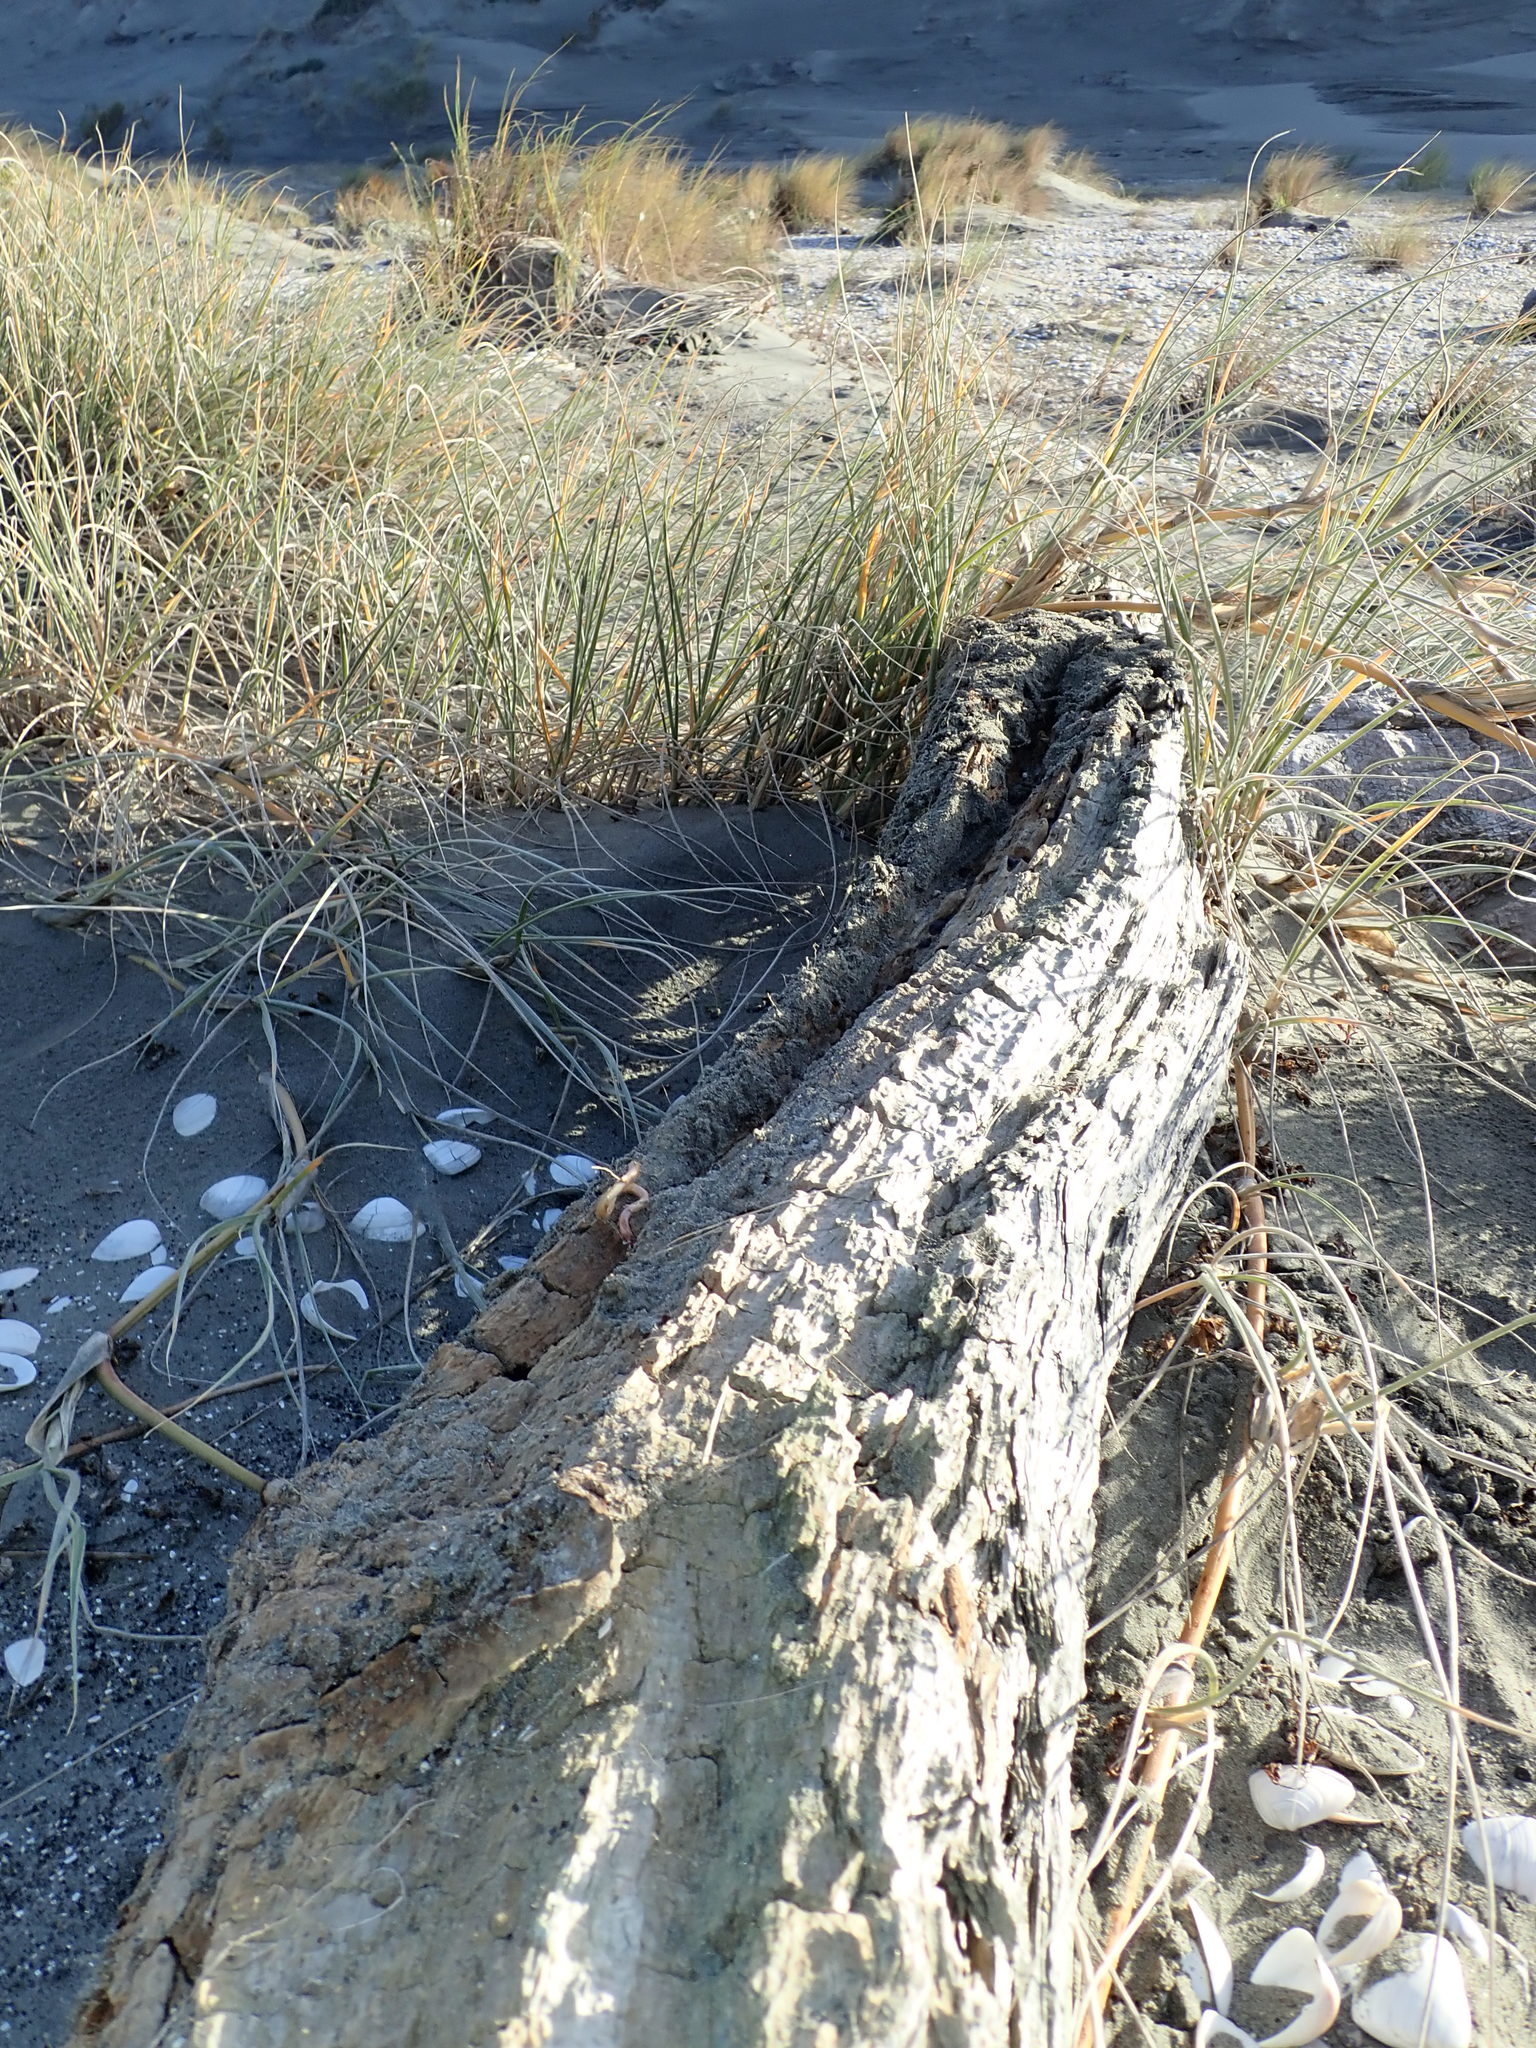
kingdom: Animalia
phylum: Arthropoda
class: Arachnida
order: Araneae
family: Thomisidae
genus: Sidymella
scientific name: Sidymella trapezia
